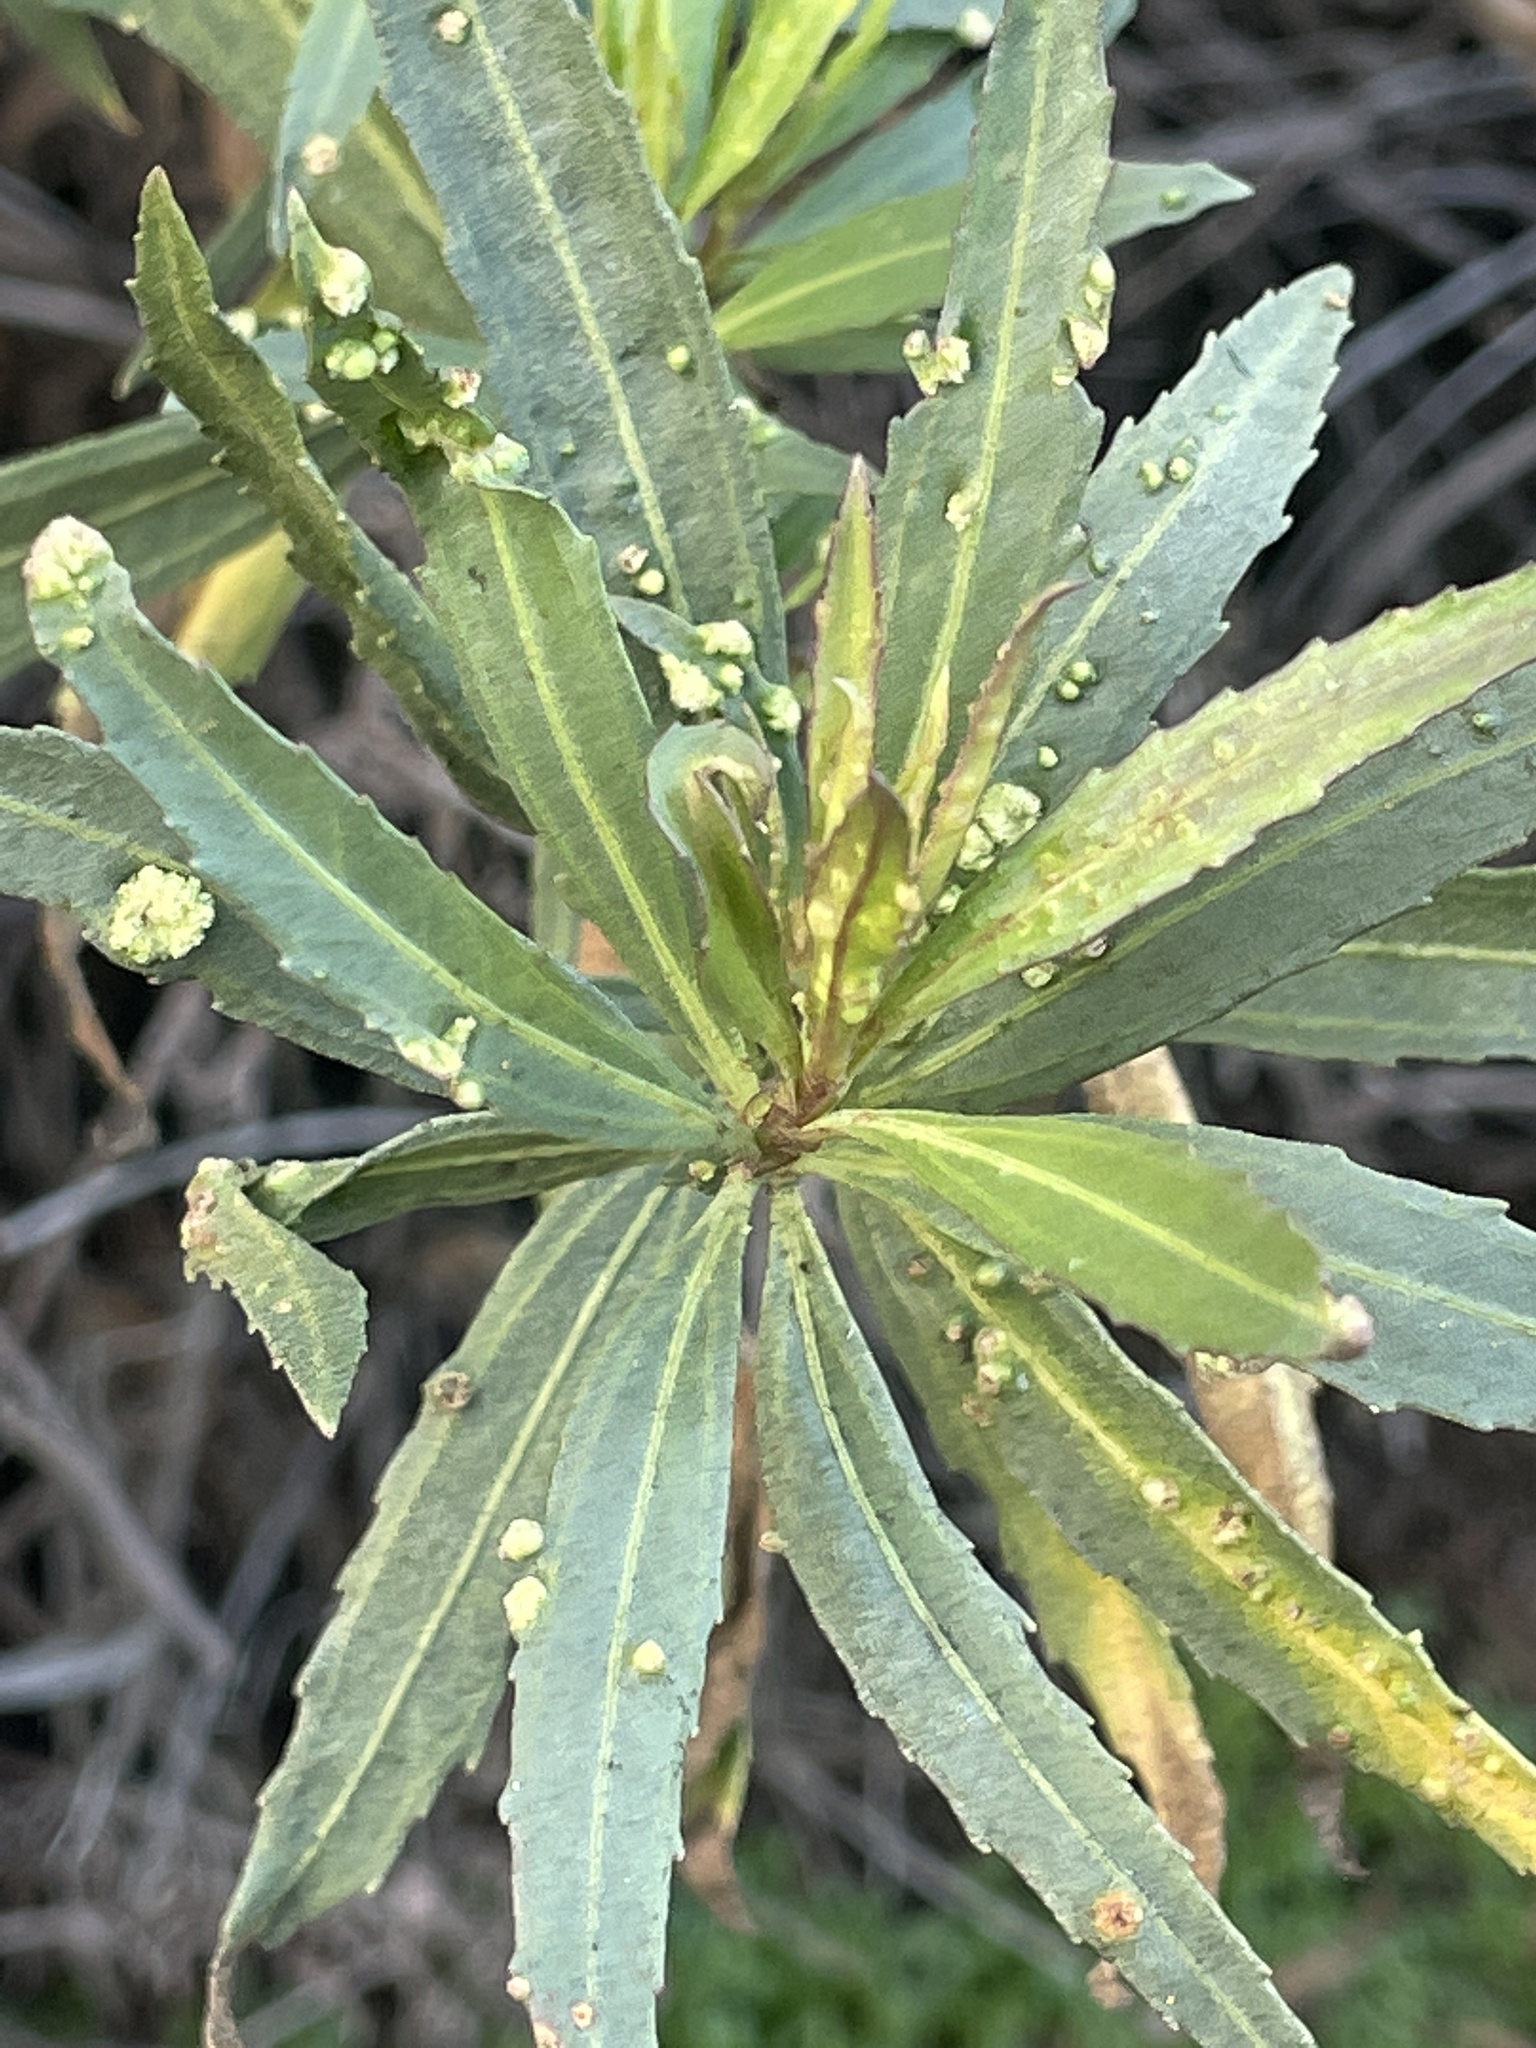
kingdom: Animalia
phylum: Arthropoda
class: Arachnida
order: Trombidiformes
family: Eriophyidae
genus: Aceria
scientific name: Aceria
